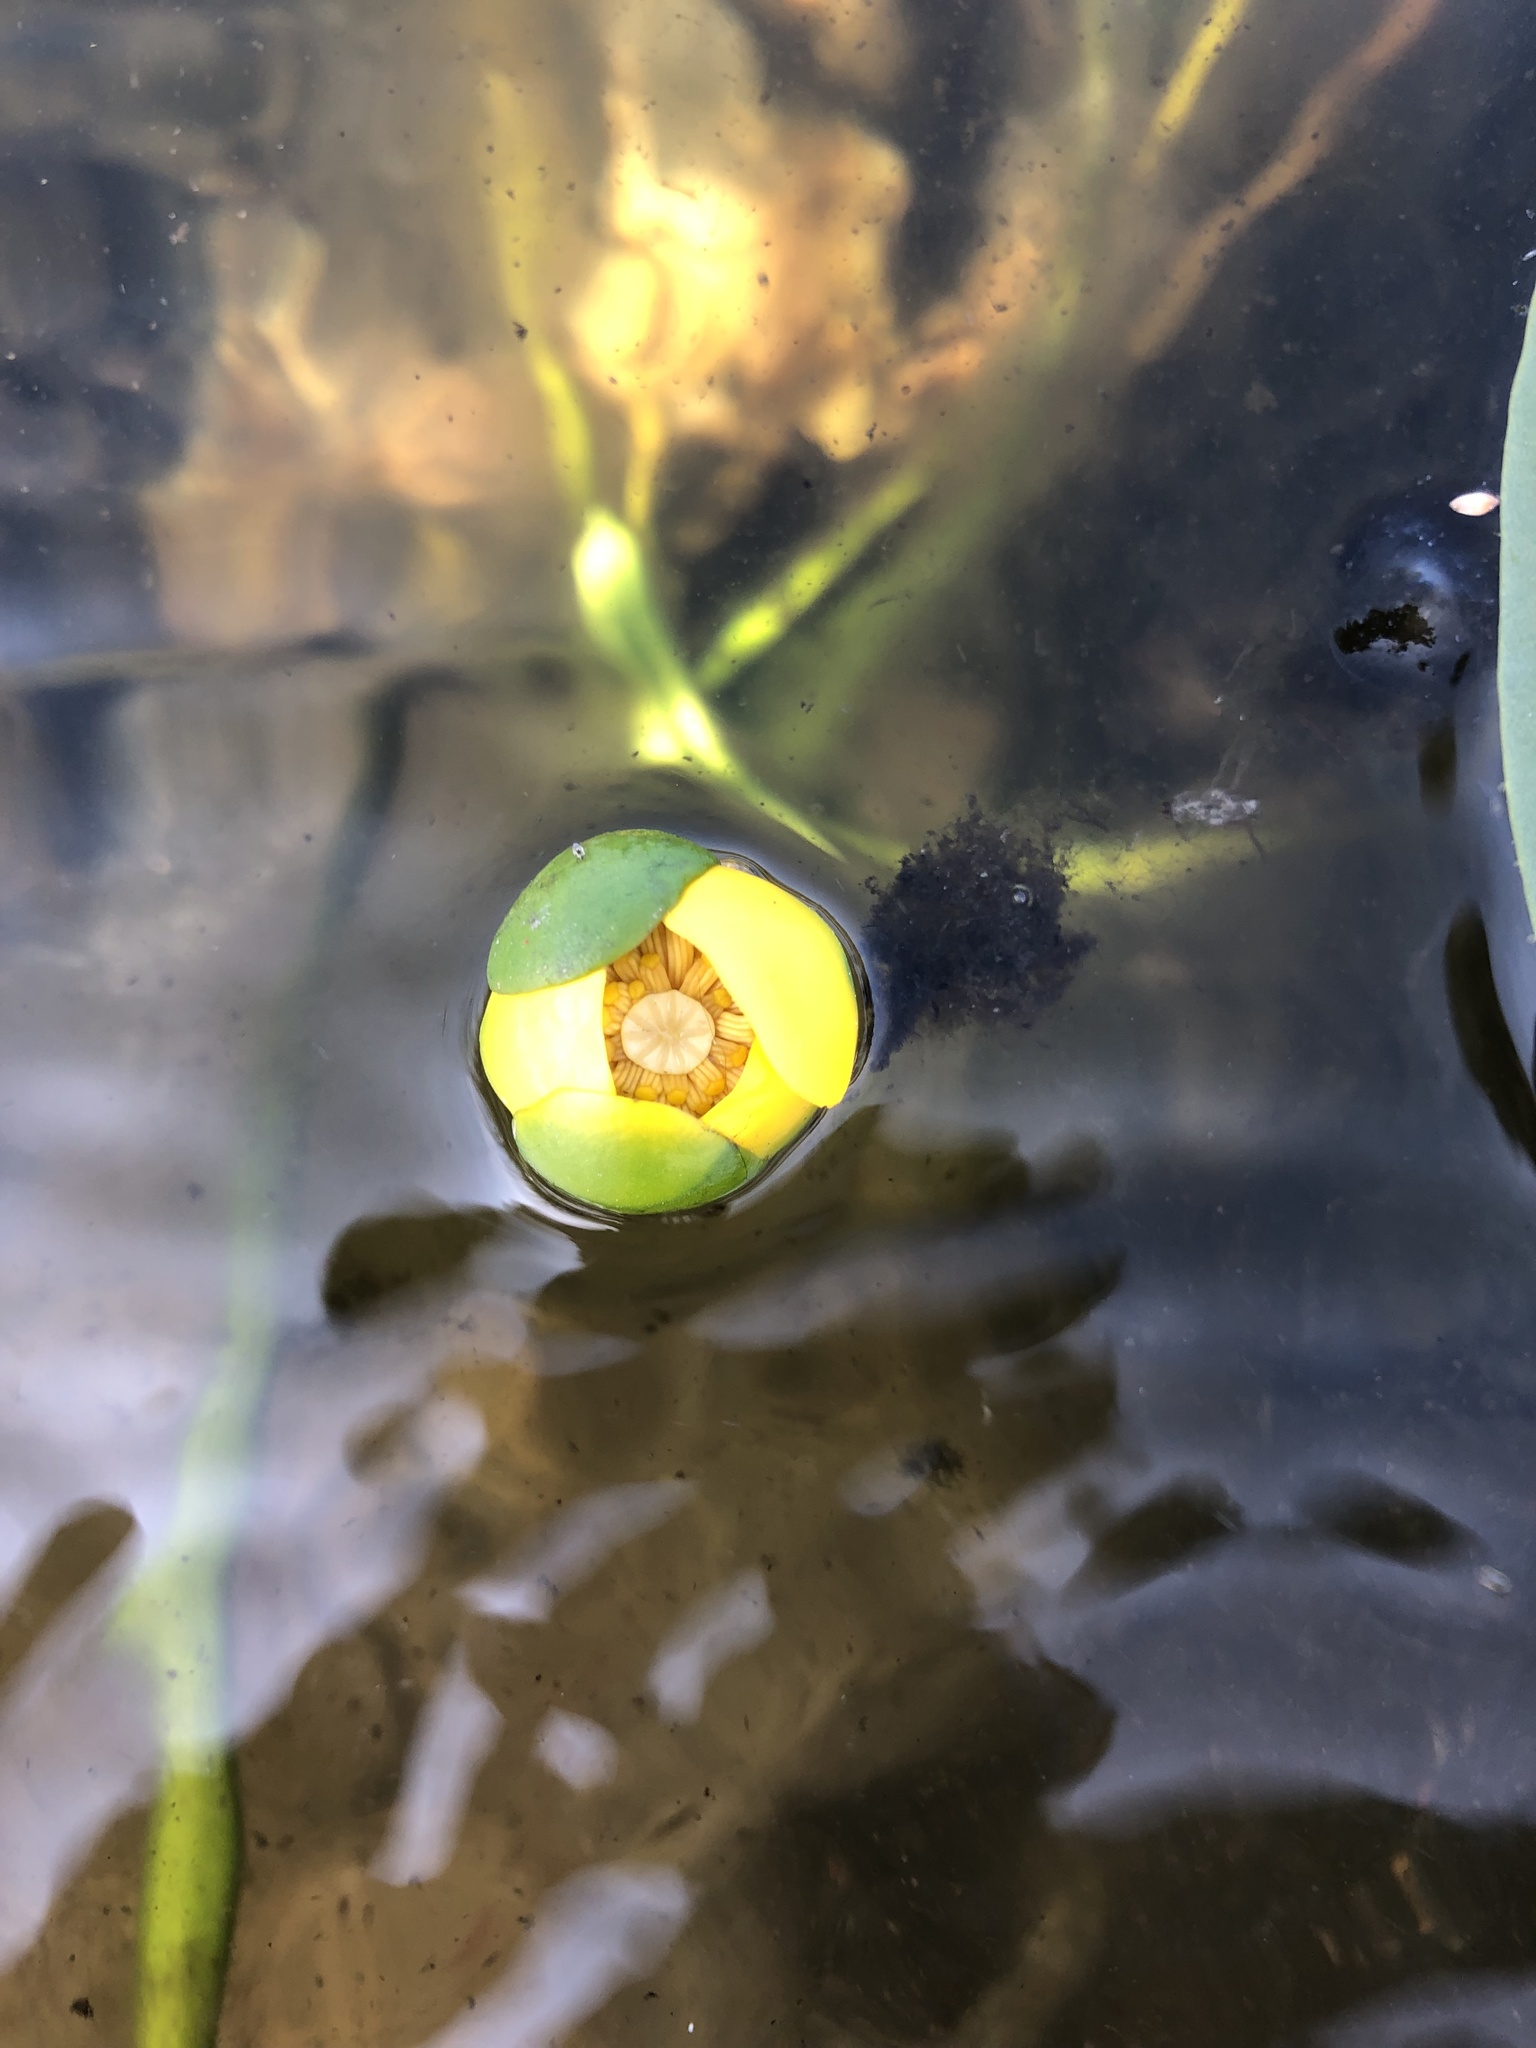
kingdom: Plantae
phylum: Tracheophyta
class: Magnoliopsida
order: Nymphaeales
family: Nymphaeaceae
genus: Nuphar
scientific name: Nuphar spenneriana
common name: Hybrid-water-lily
